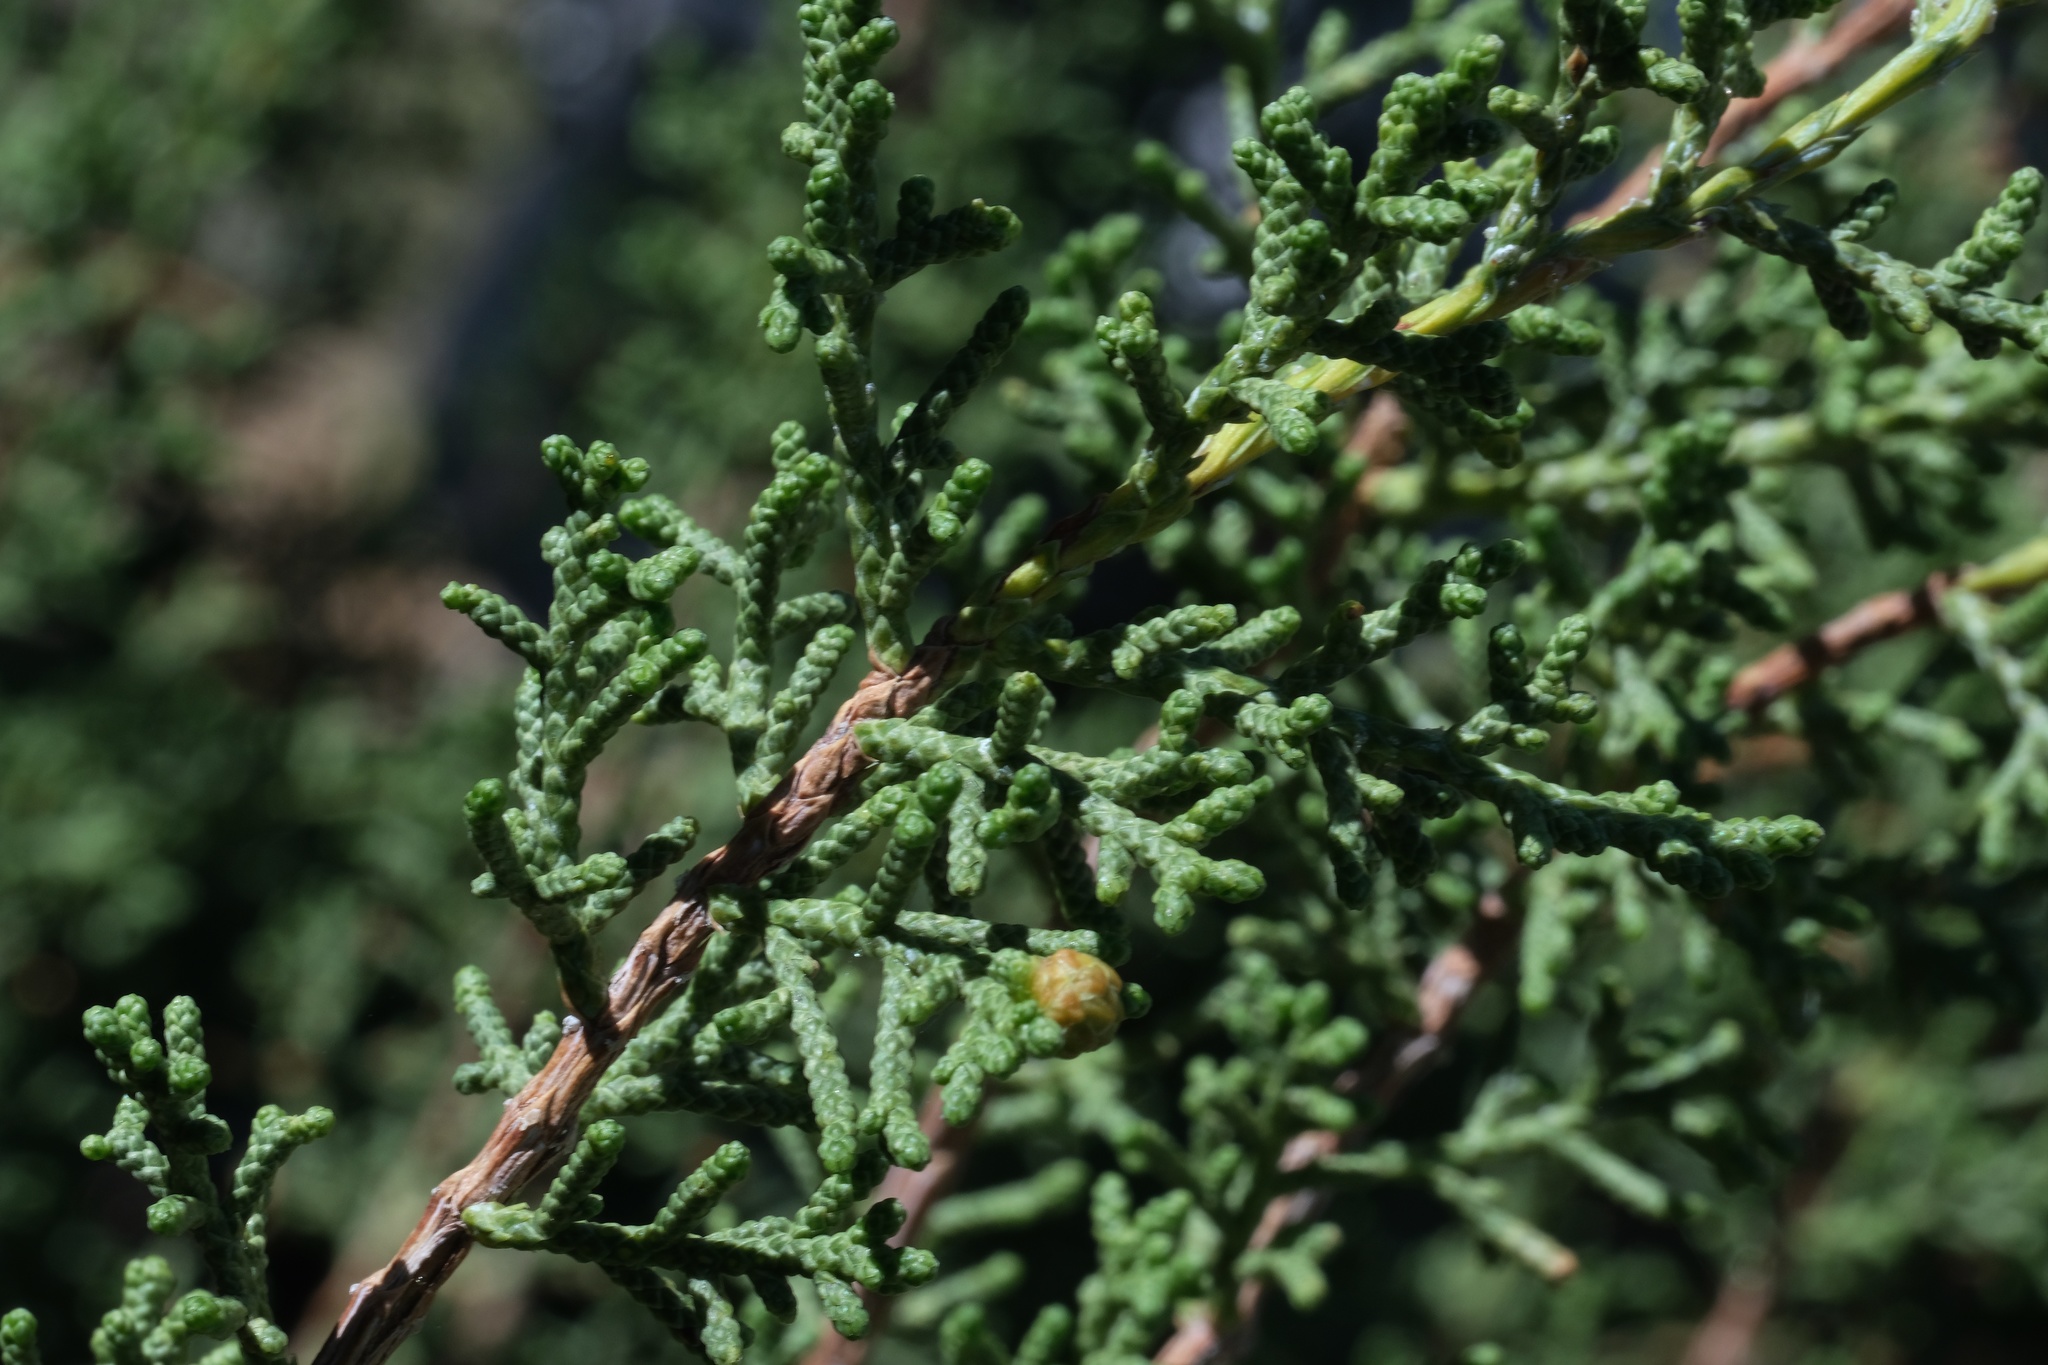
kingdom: Plantae
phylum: Tracheophyta
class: Pinopsida
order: Pinales
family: Cupressaceae
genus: Juniperus
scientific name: Juniperus californica
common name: California juniper
